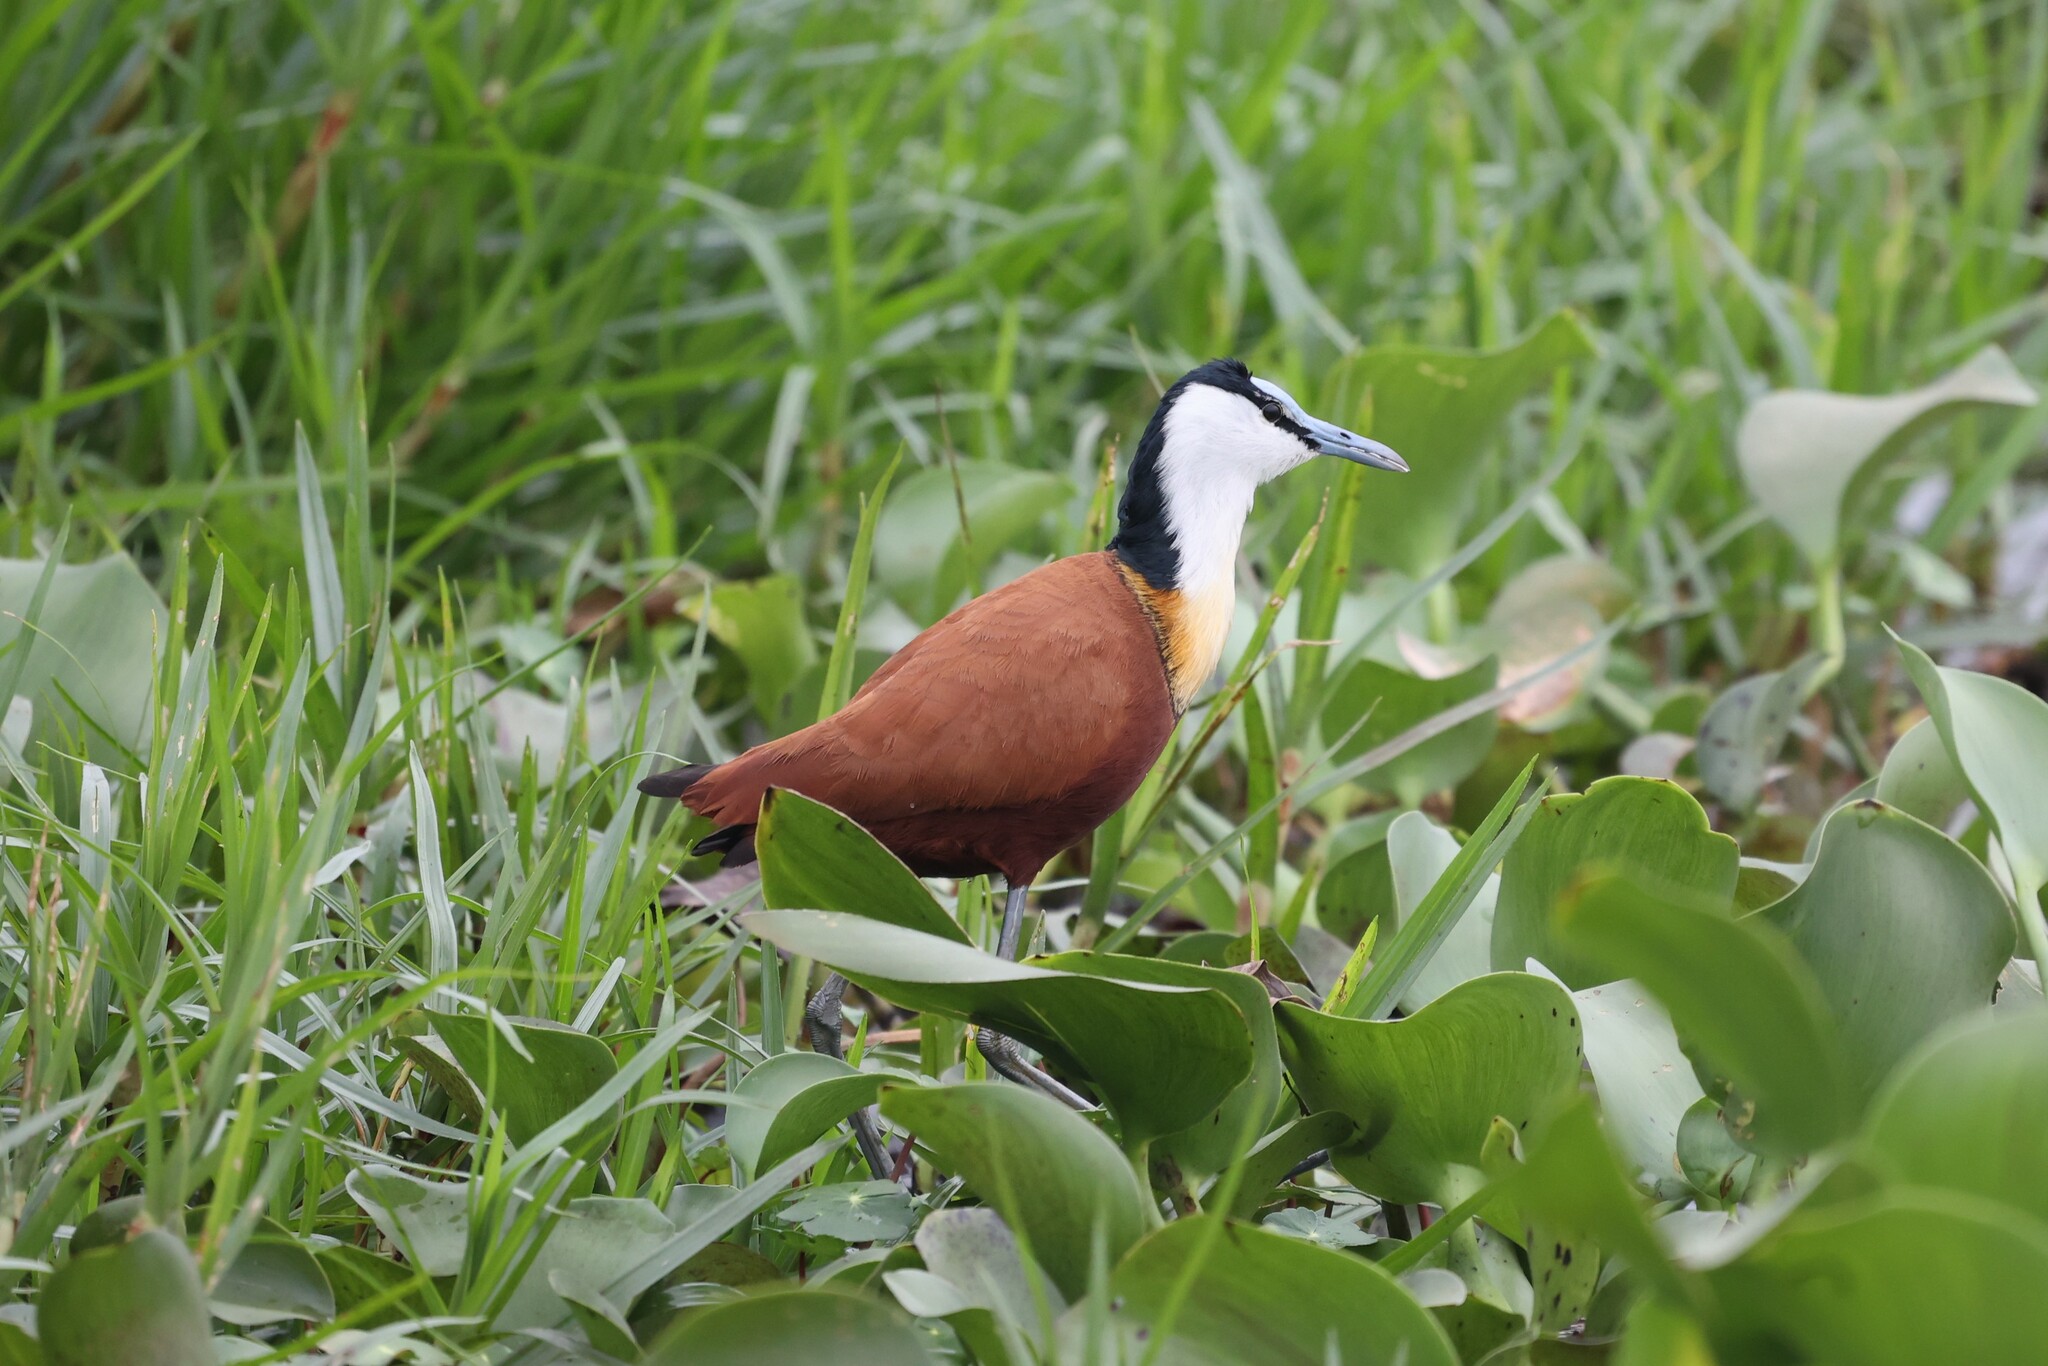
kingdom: Animalia
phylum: Chordata
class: Aves
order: Charadriiformes
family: Jacanidae
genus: Actophilornis
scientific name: Actophilornis africanus
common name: African jacana
